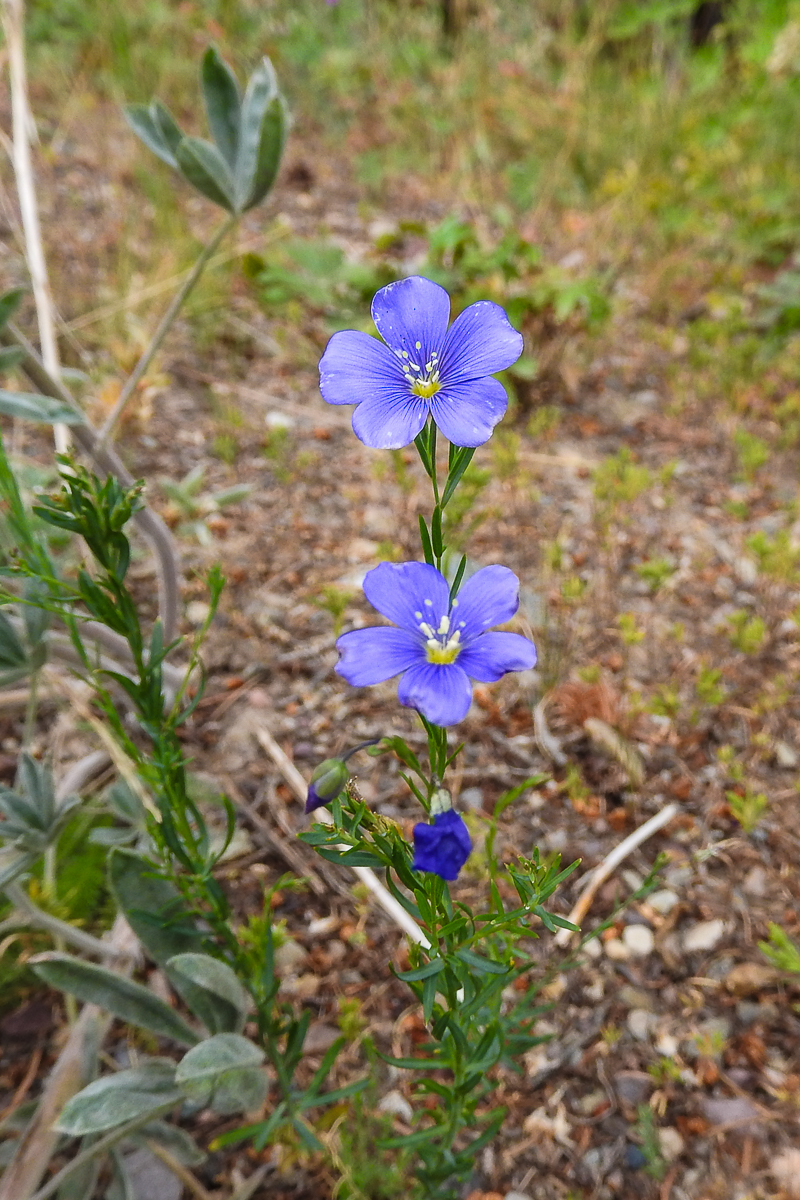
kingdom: Plantae
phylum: Tracheophyta
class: Magnoliopsida
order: Malpighiales
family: Linaceae
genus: Linum
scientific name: Linum lewisii
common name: Prairie flax
